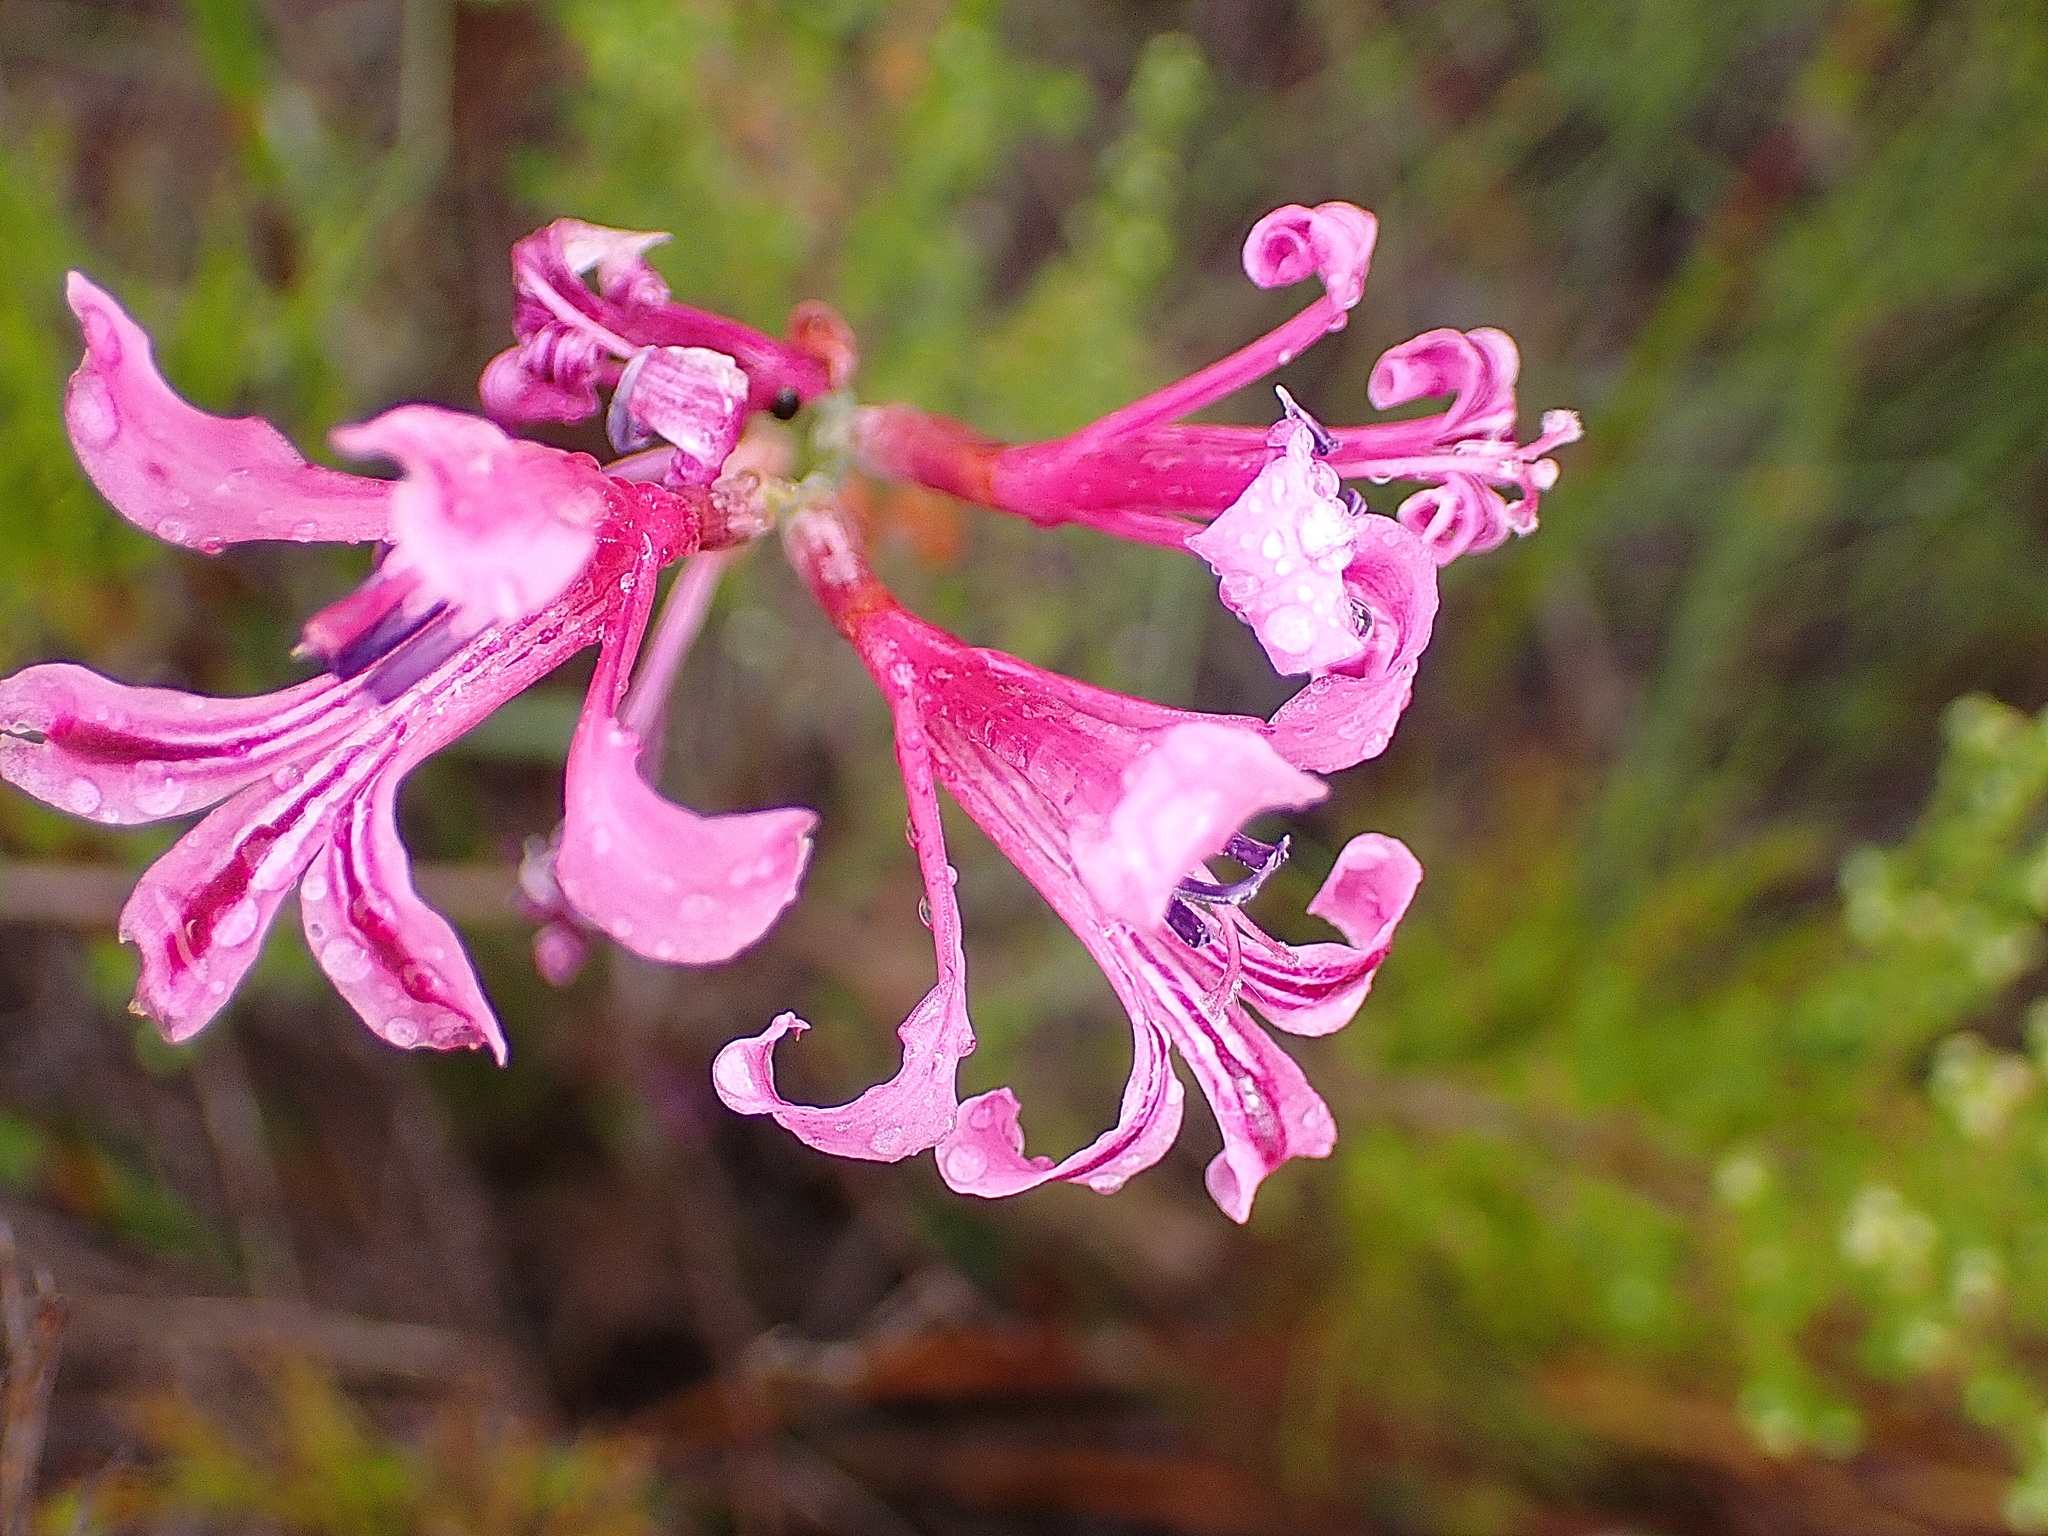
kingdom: Plantae
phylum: Tracheophyta
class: Liliopsida
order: Asparagales
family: Iridaceae
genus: Tritoniopsis
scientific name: Tritoniopsis lata
